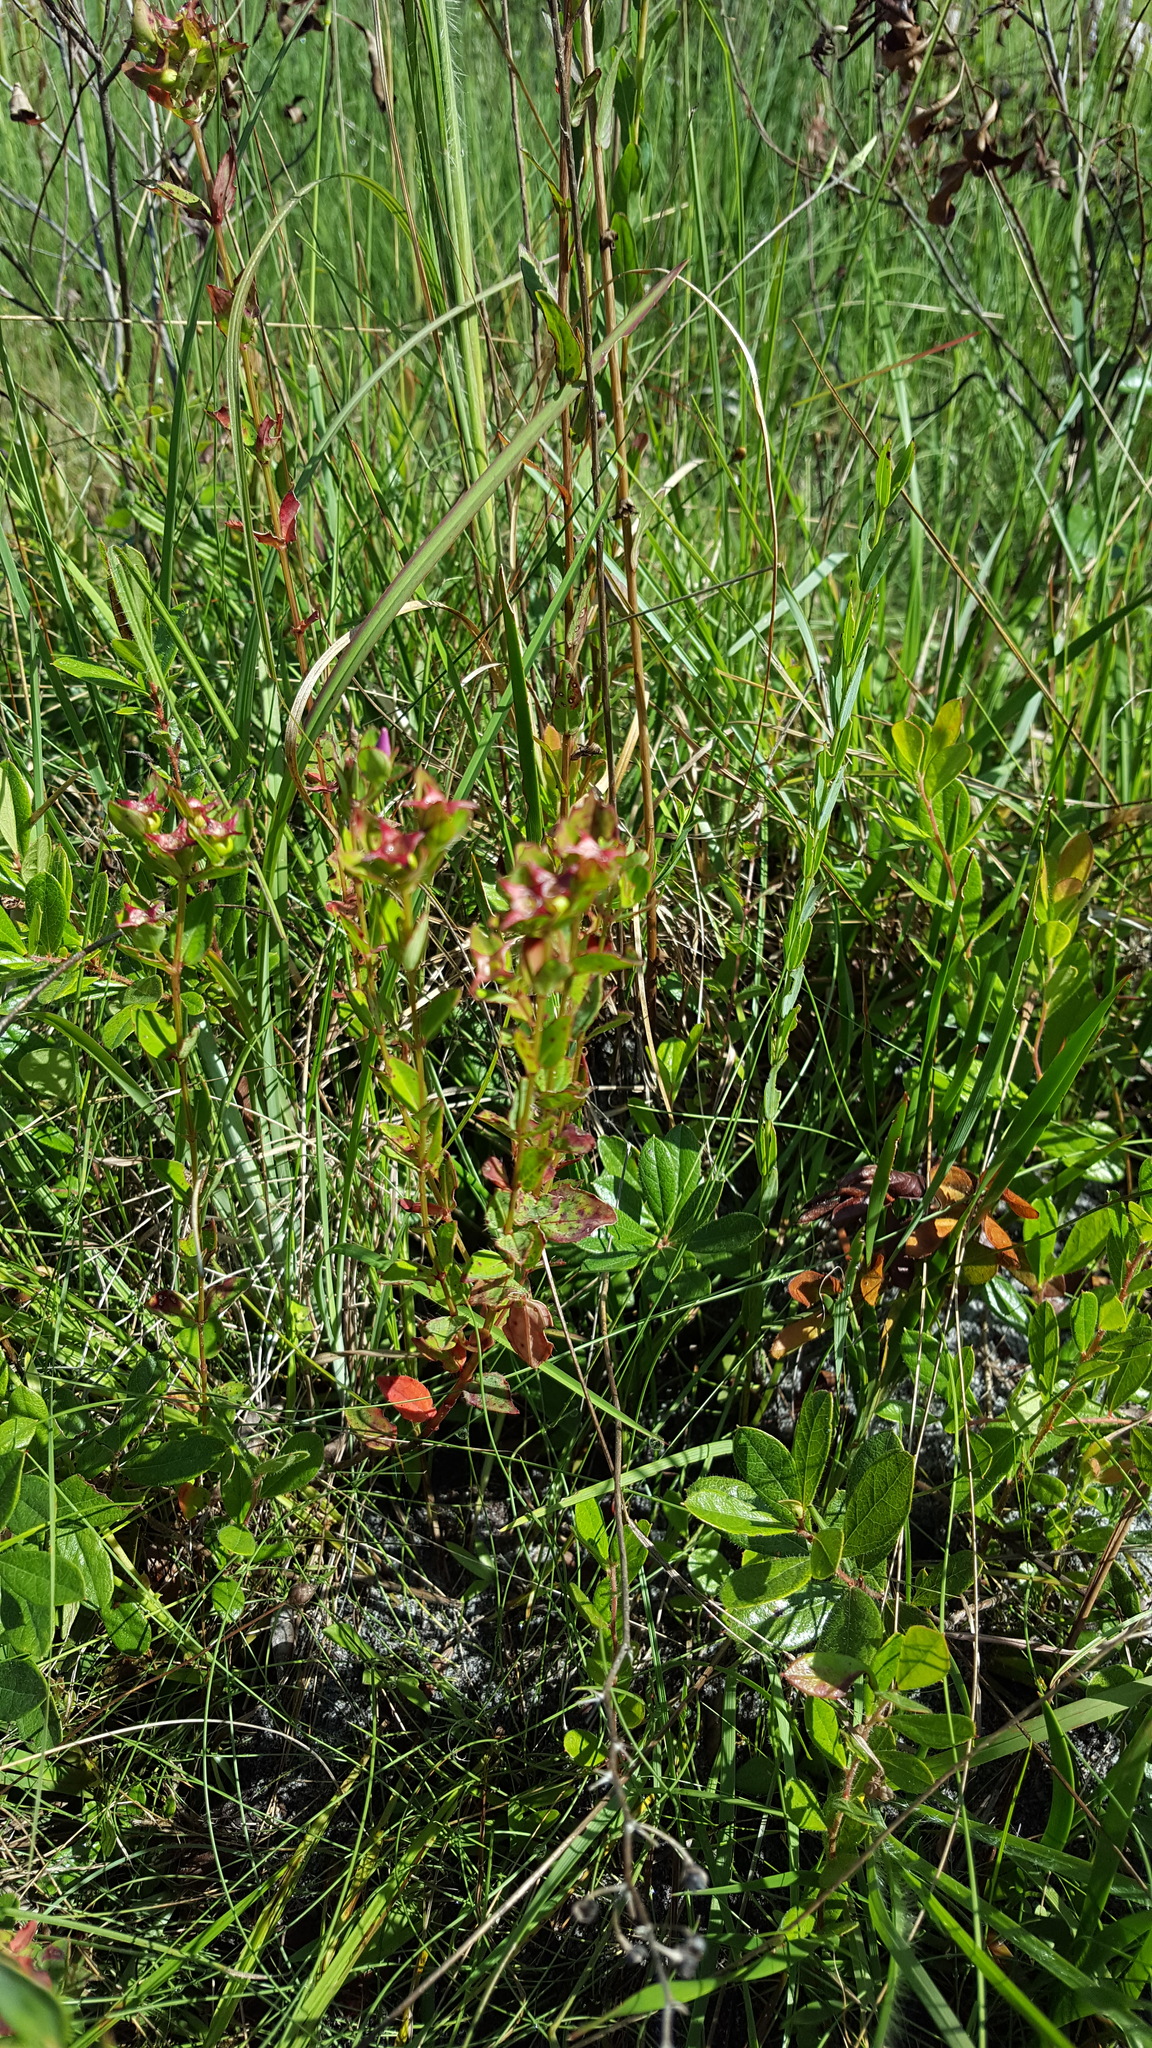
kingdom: Plantae
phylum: Tracheophyta
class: Magnoliopsida
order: Myrtales
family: Melastomataceae
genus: Rhexia
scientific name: Rhexia petiolata
